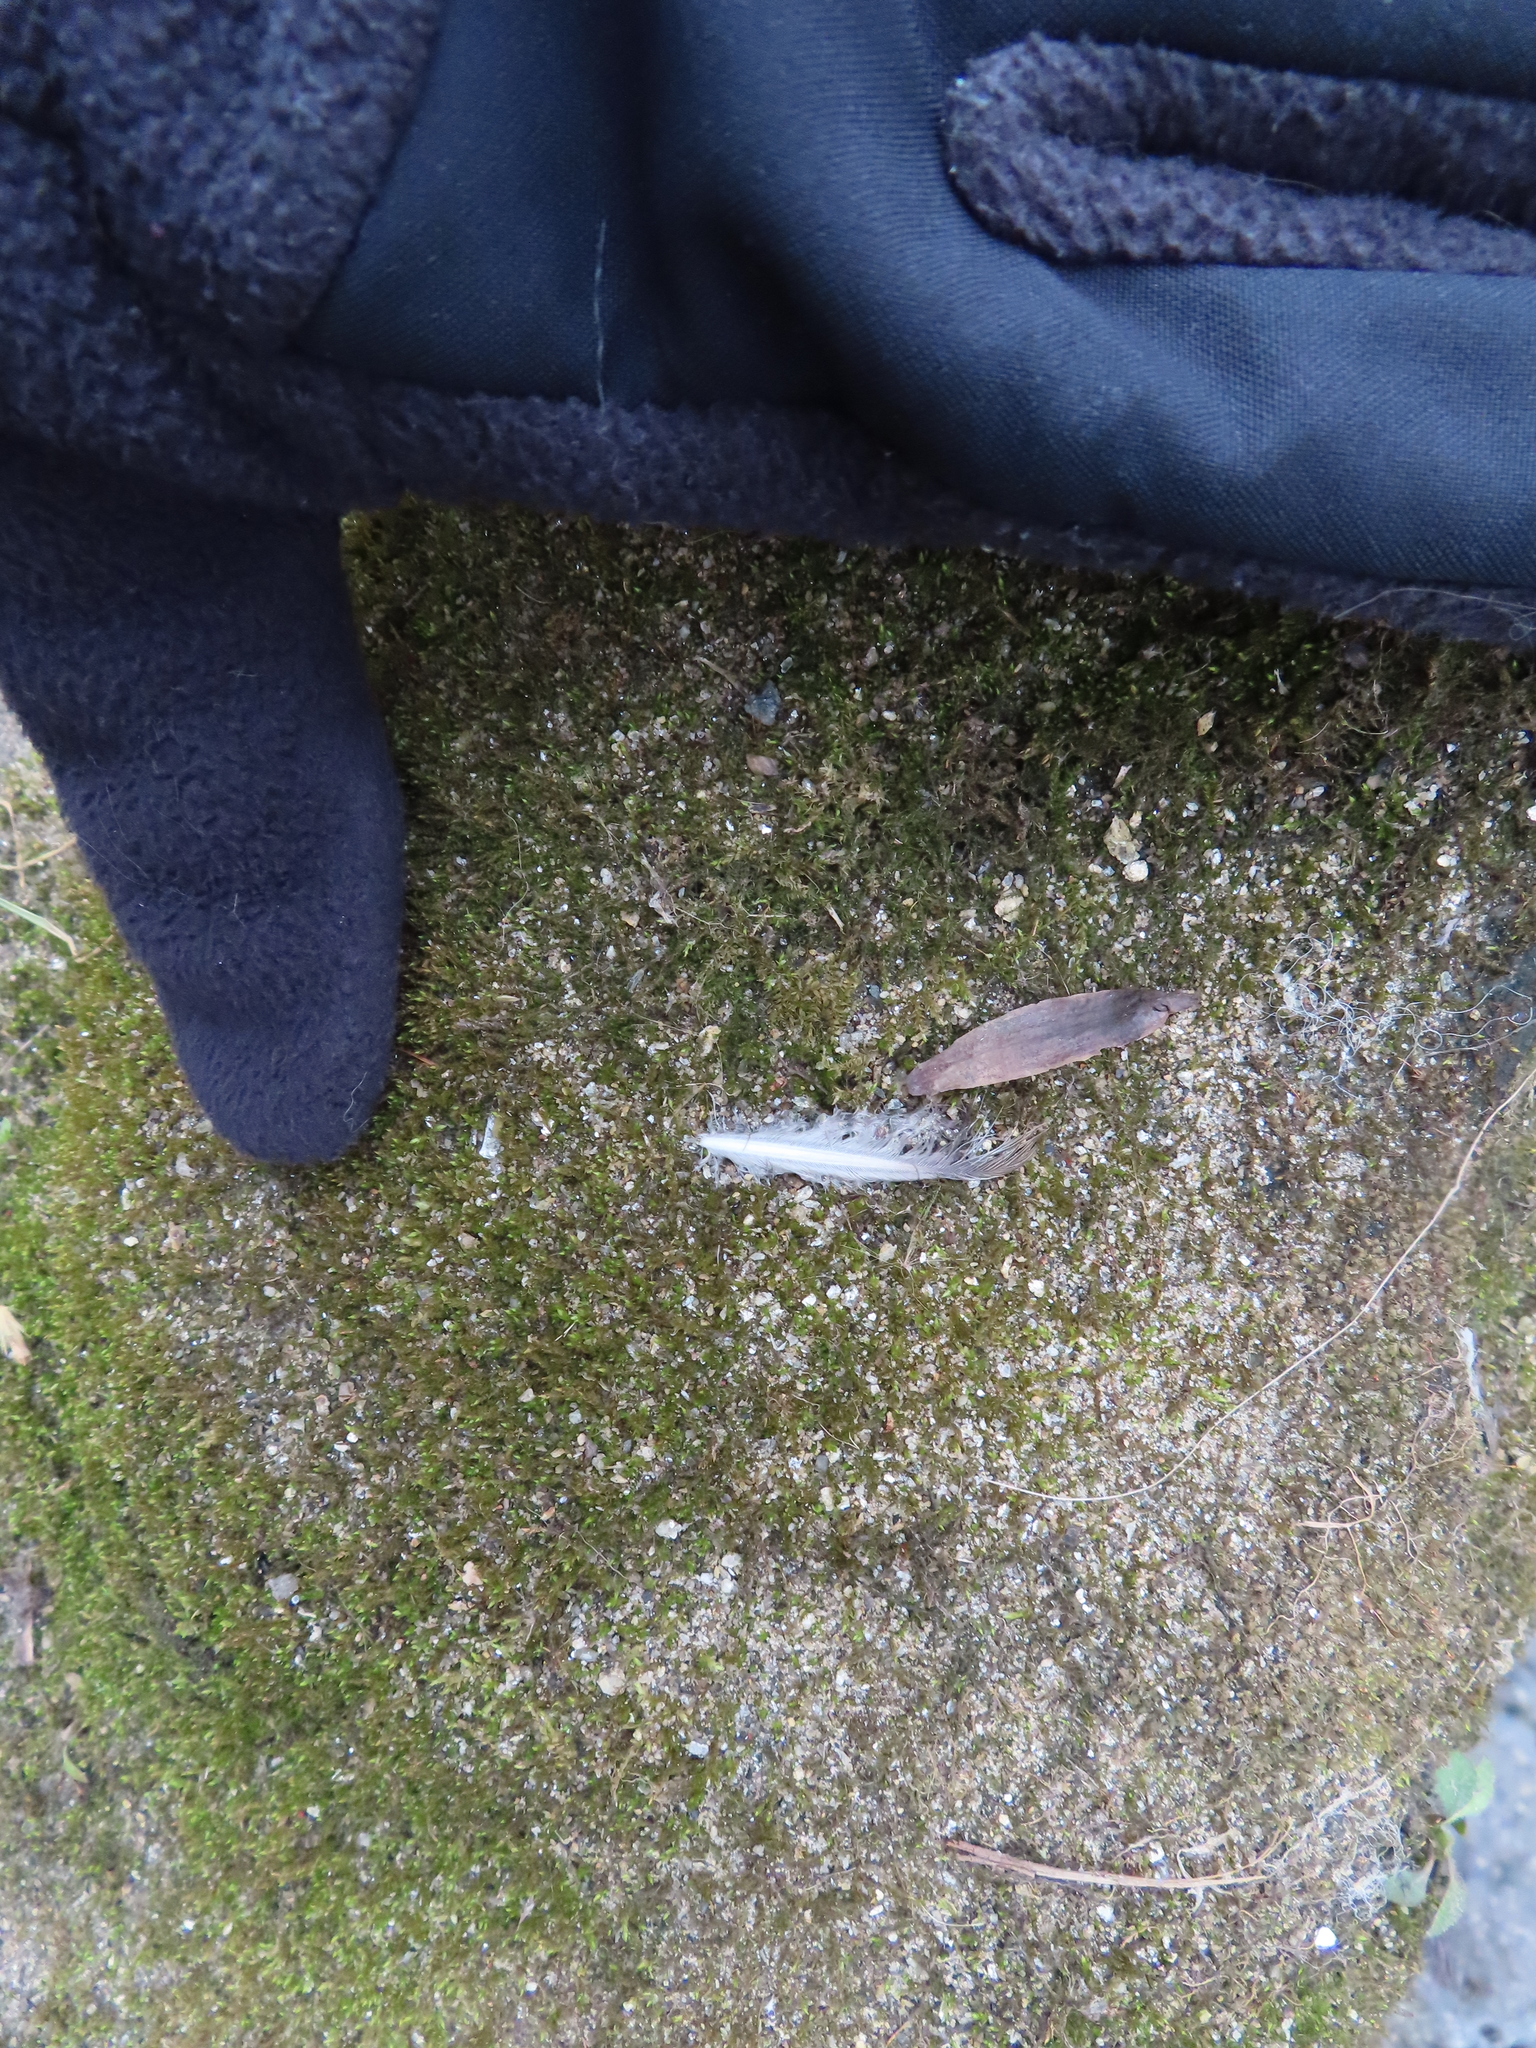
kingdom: Animalia
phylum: Chordata
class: Aves
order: Columbiformes
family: Columbidae
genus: Zenaida
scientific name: Zenaida macroura
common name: Mourning dove
